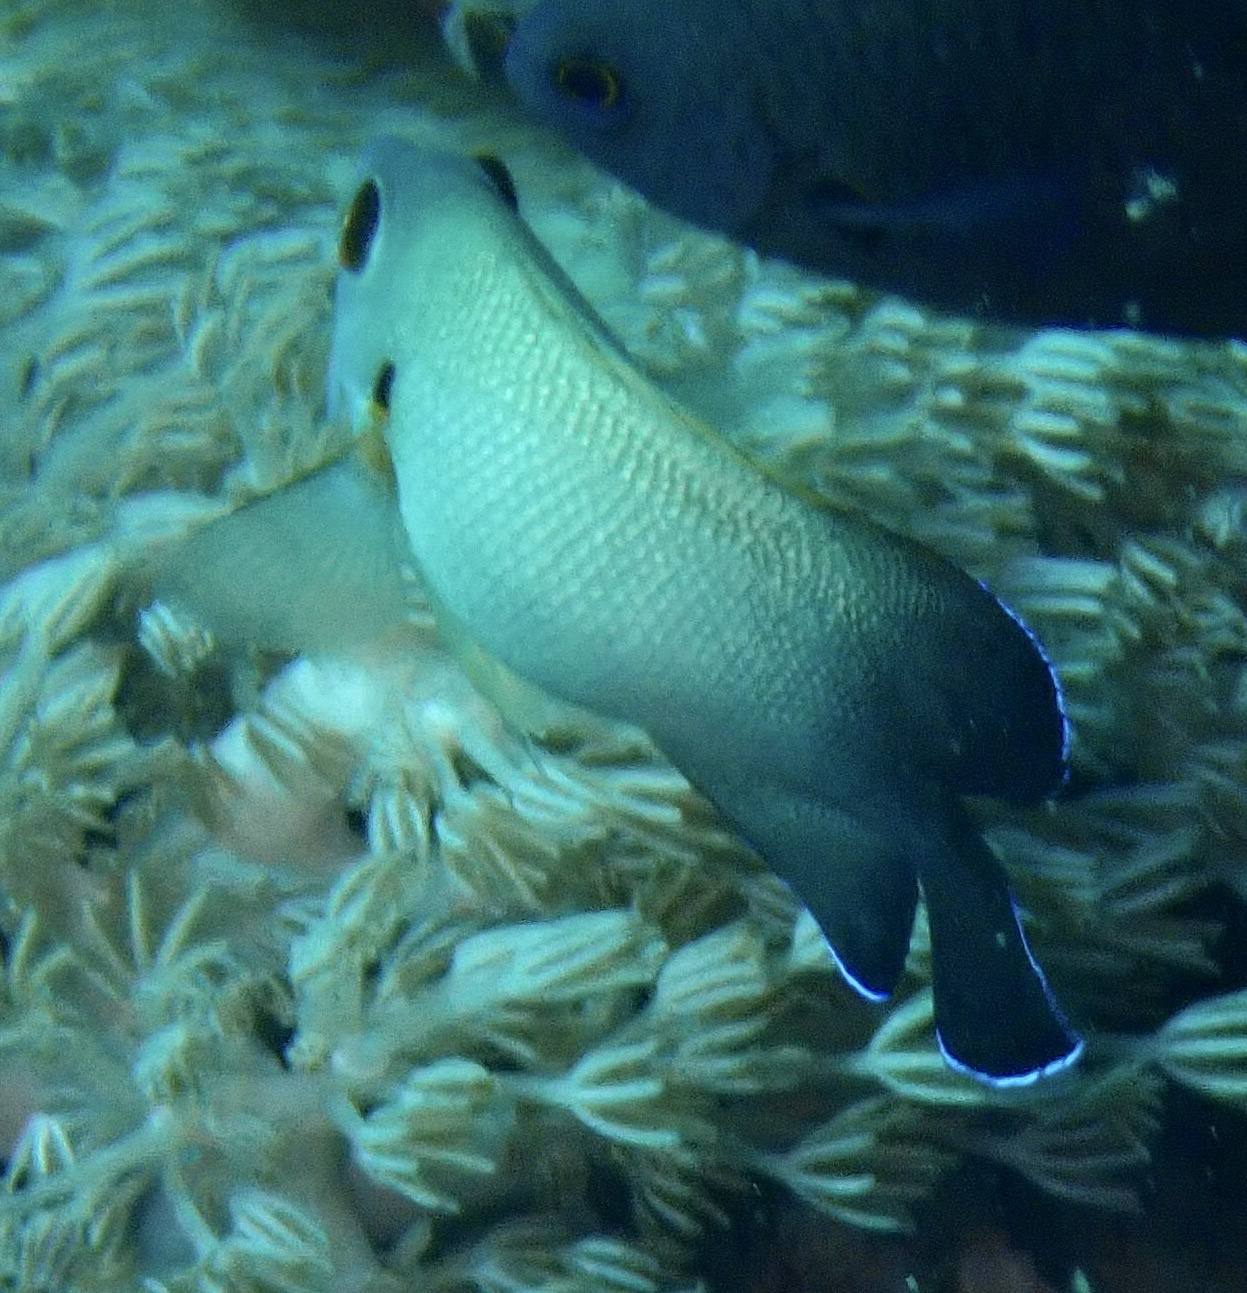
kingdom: Animalia
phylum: Chordata
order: Perciformes
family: Pomacanthidae
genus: Centropyge
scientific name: Centropyge vrolikii
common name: Pearlscale angelfish
